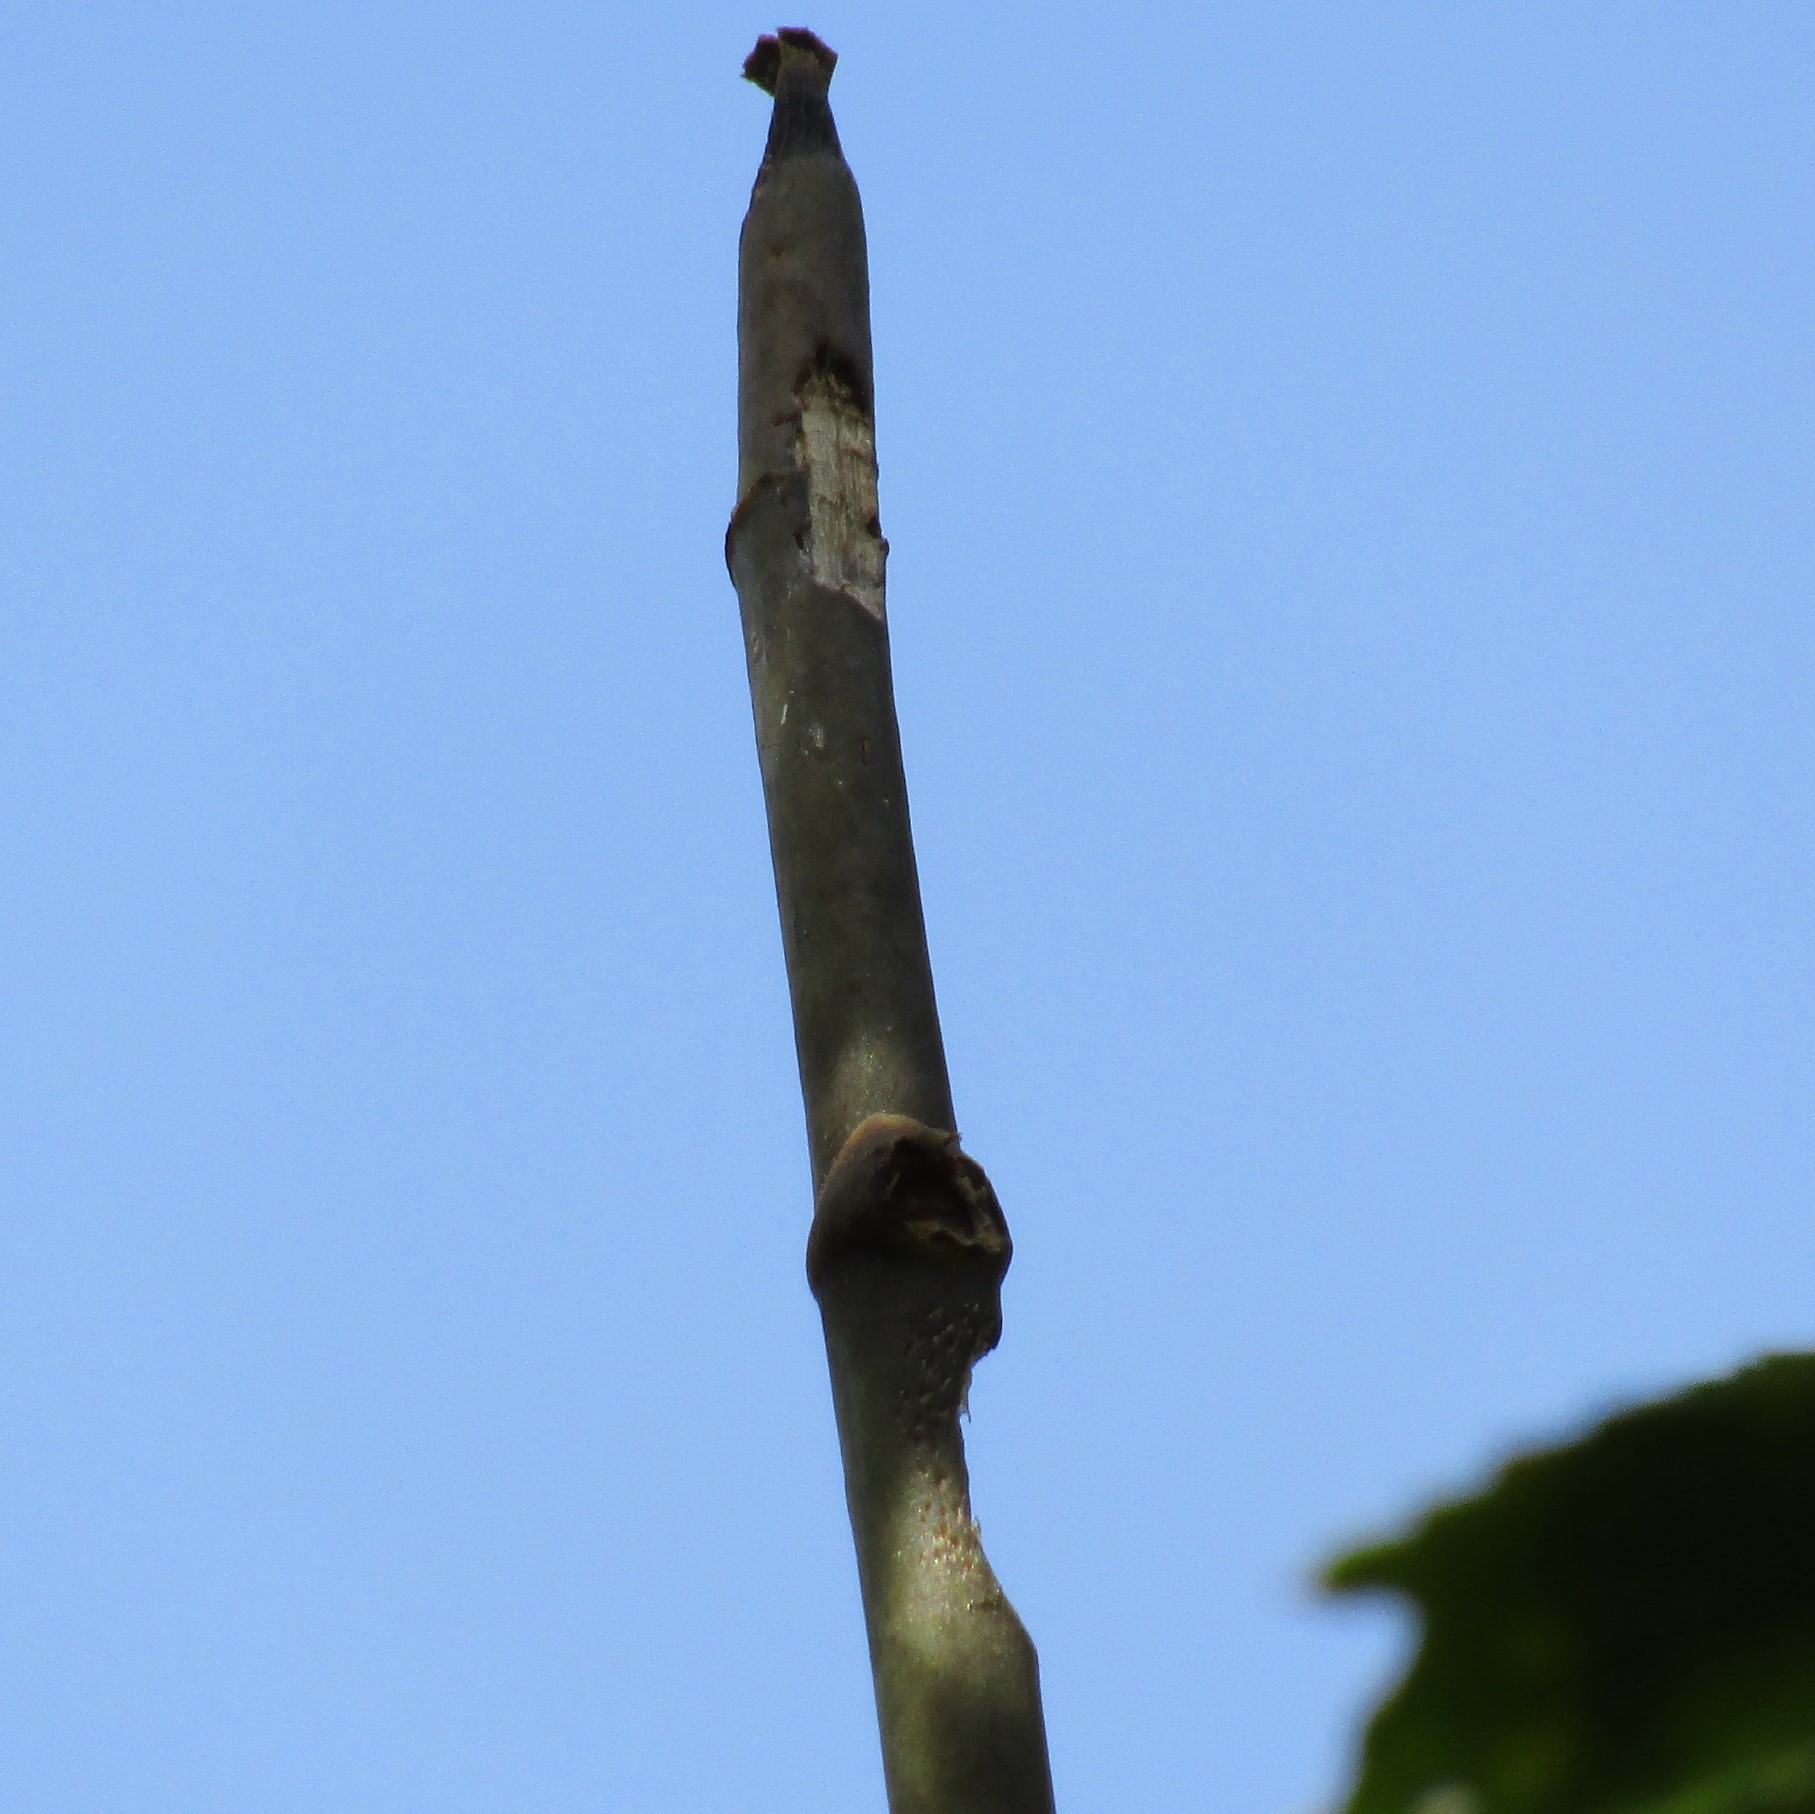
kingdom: Animalia
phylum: Chordata
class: Mammalia
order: Diprotodontia
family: Phalangeridae
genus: Trichosurus
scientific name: Trichosurus vulpecula
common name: Common brushtail
